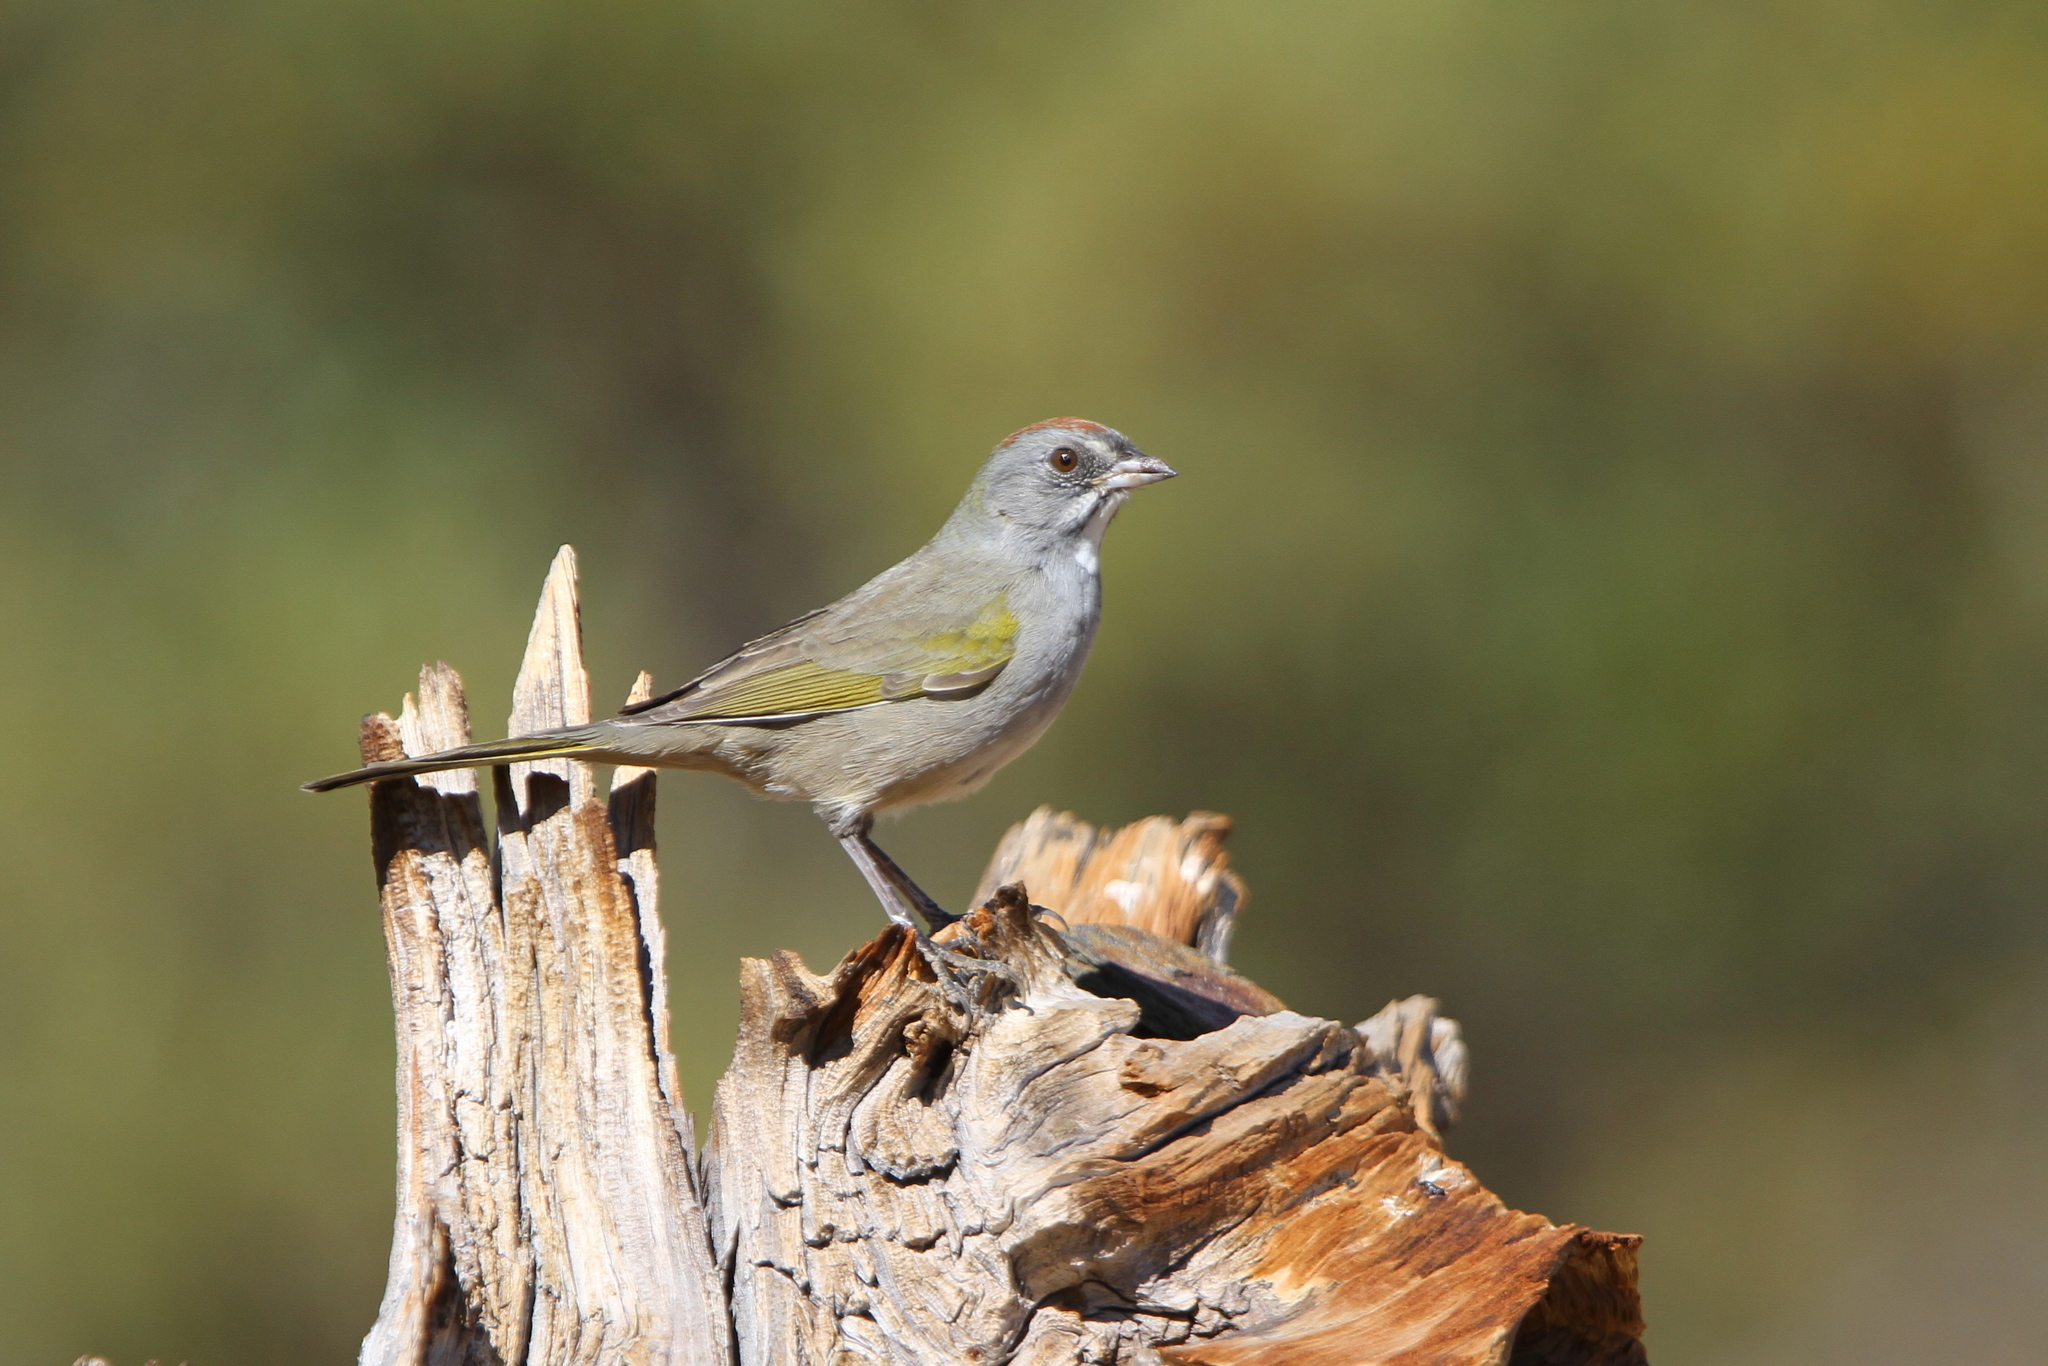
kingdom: Animalia
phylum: Chordata
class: Aves
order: Passeriformes
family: Passerellidae
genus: Pipilo
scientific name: Pipilo chlorurus
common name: Green-tailed towhee
